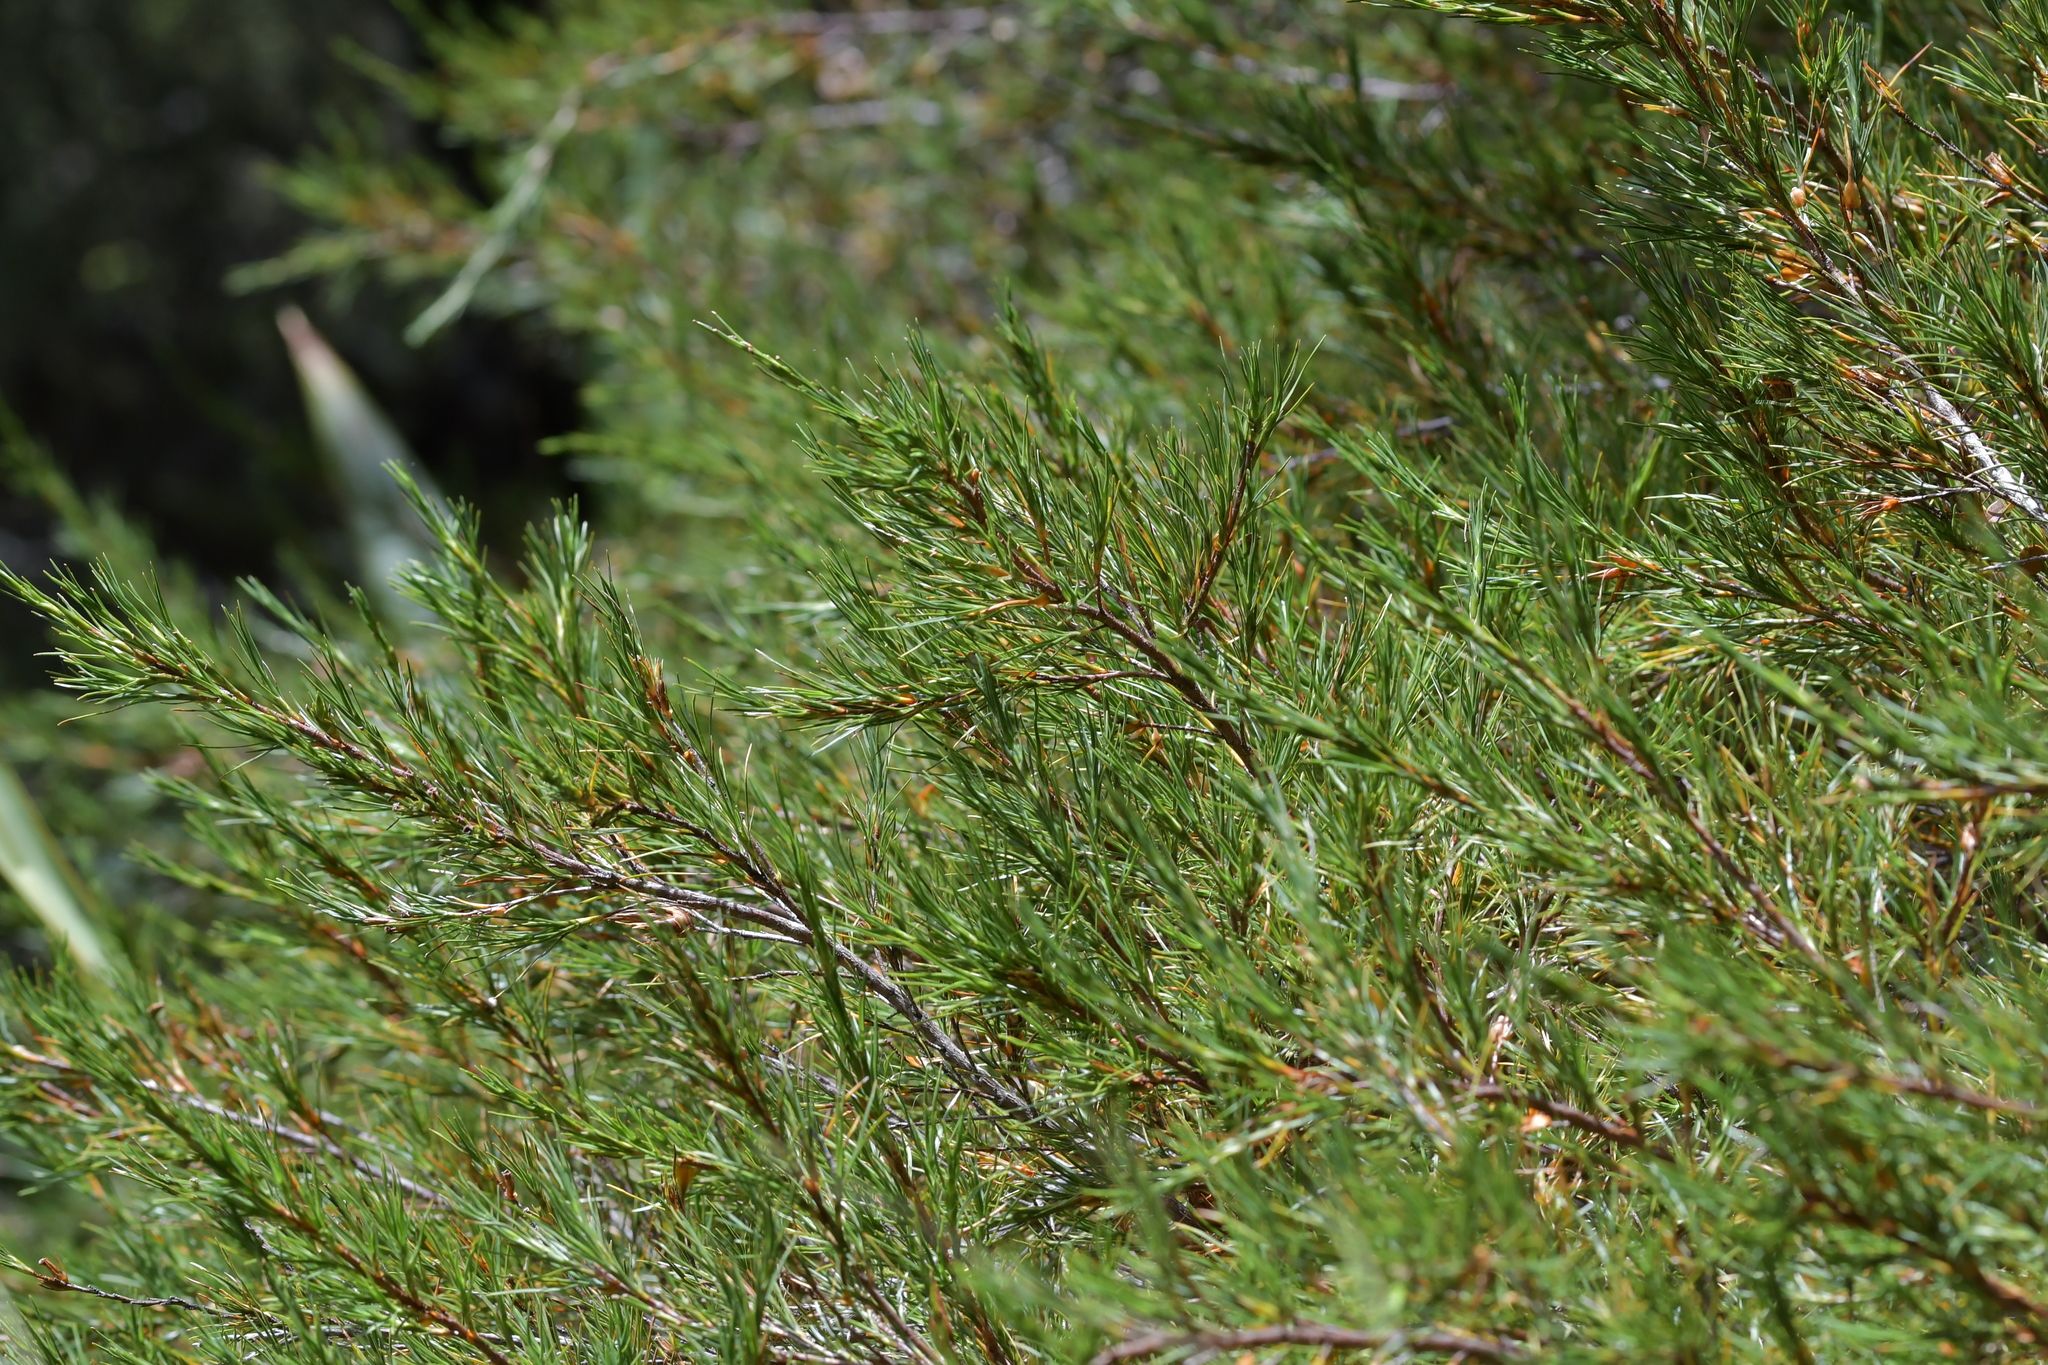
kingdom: Plantae
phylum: Tracheophyta
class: Magnoliopsida
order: Ericales
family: Ericaceae
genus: Dracophyllum
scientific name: Dracophyllum rosmarinifolium
